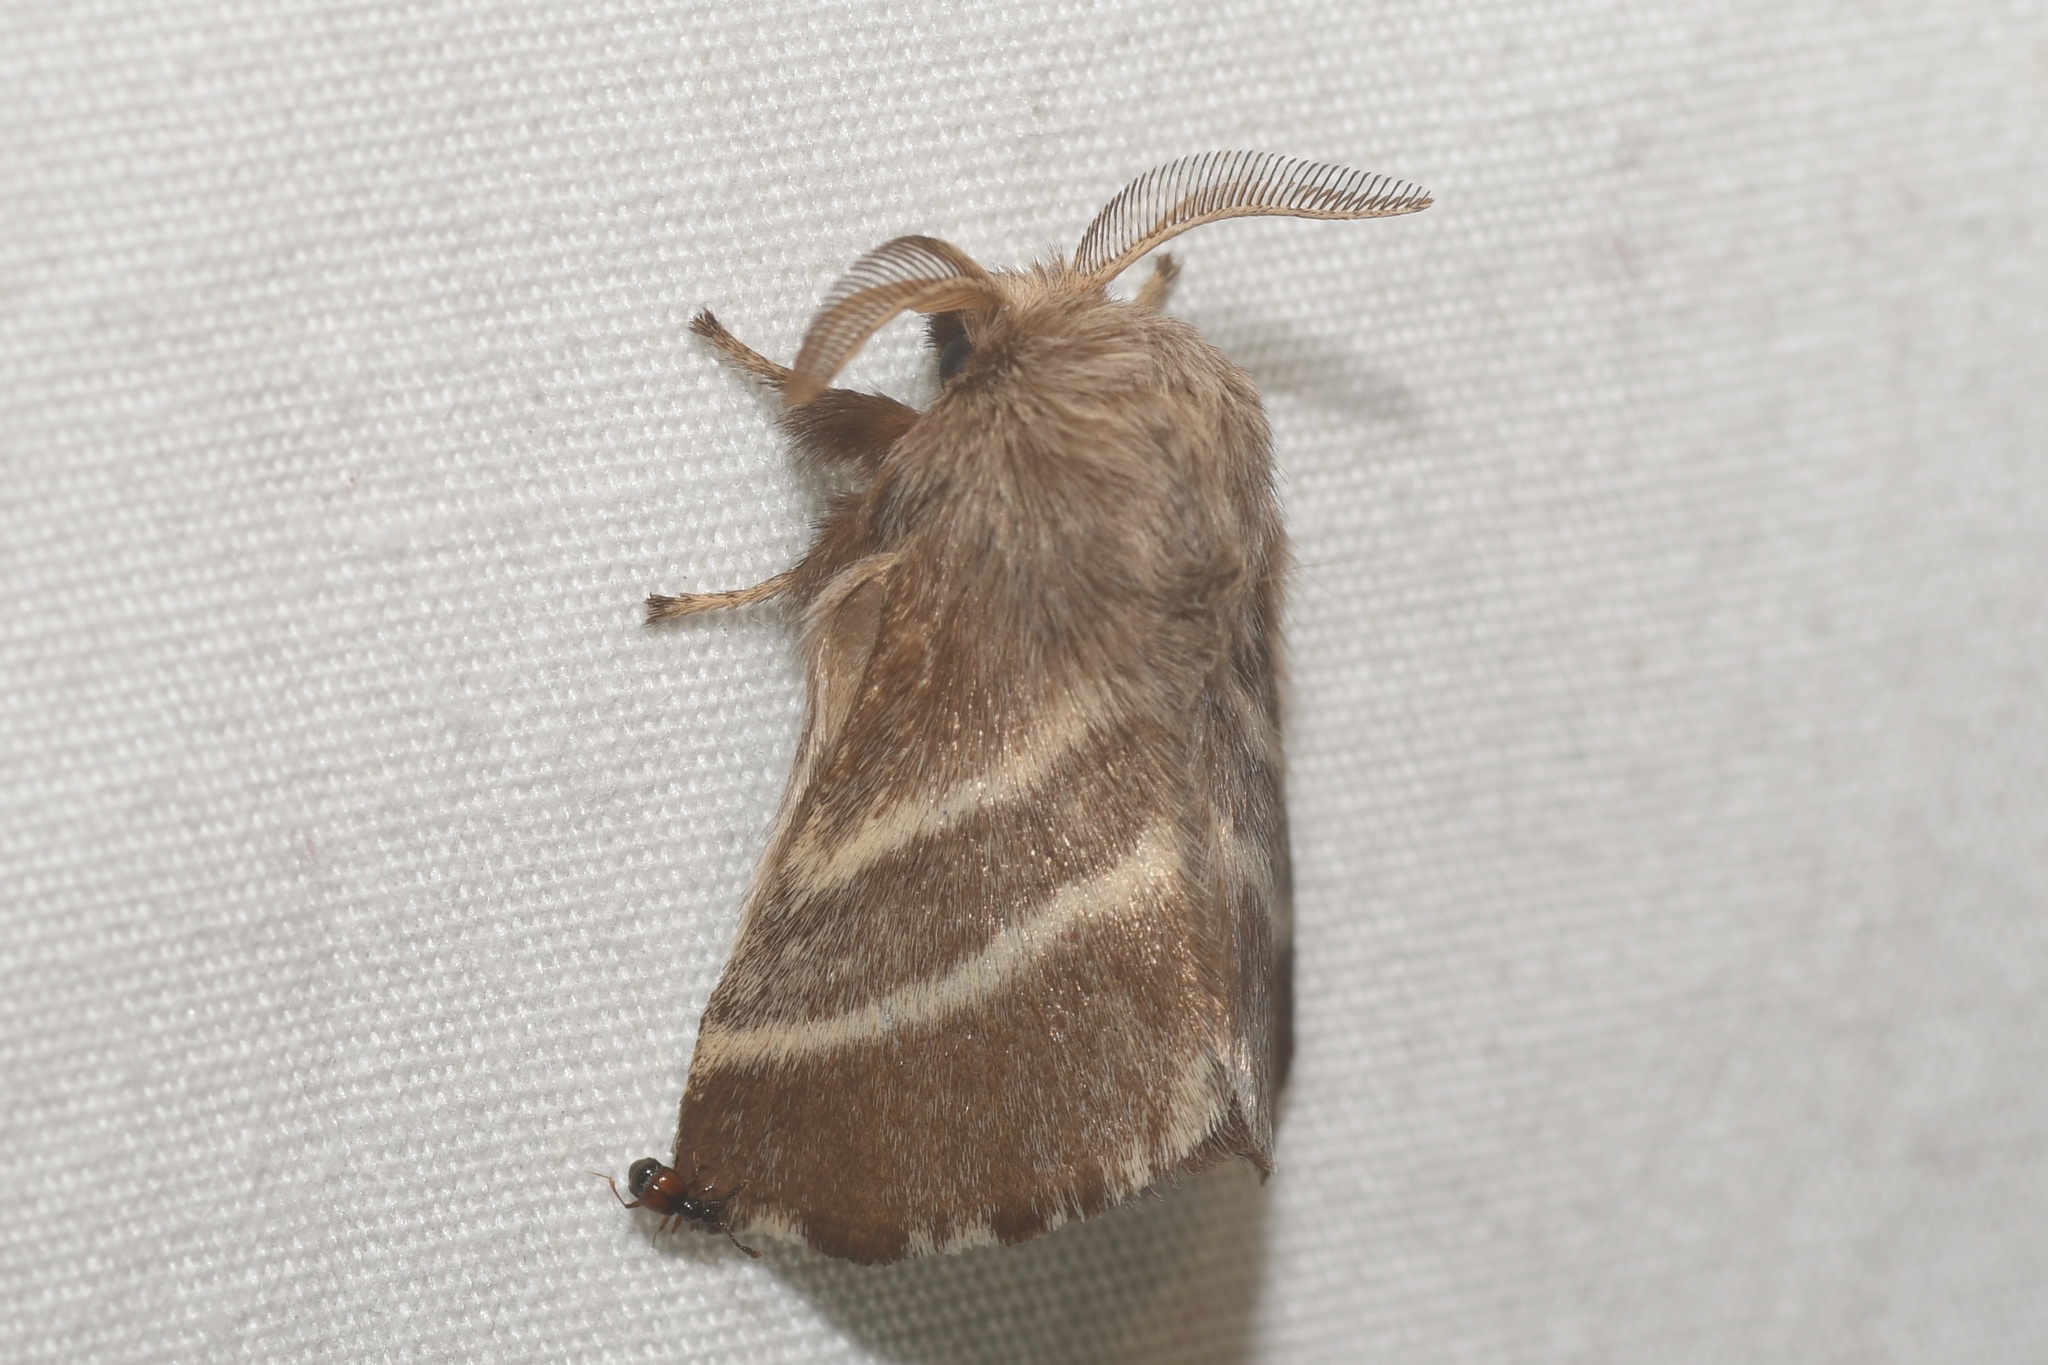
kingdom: Animalia
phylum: Arthropoda
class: Insecta
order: Lepidoptera
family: Lasiocampidae
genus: Malacosoma
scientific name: Malacosoma americana
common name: Eastern tent caterpillar moth
